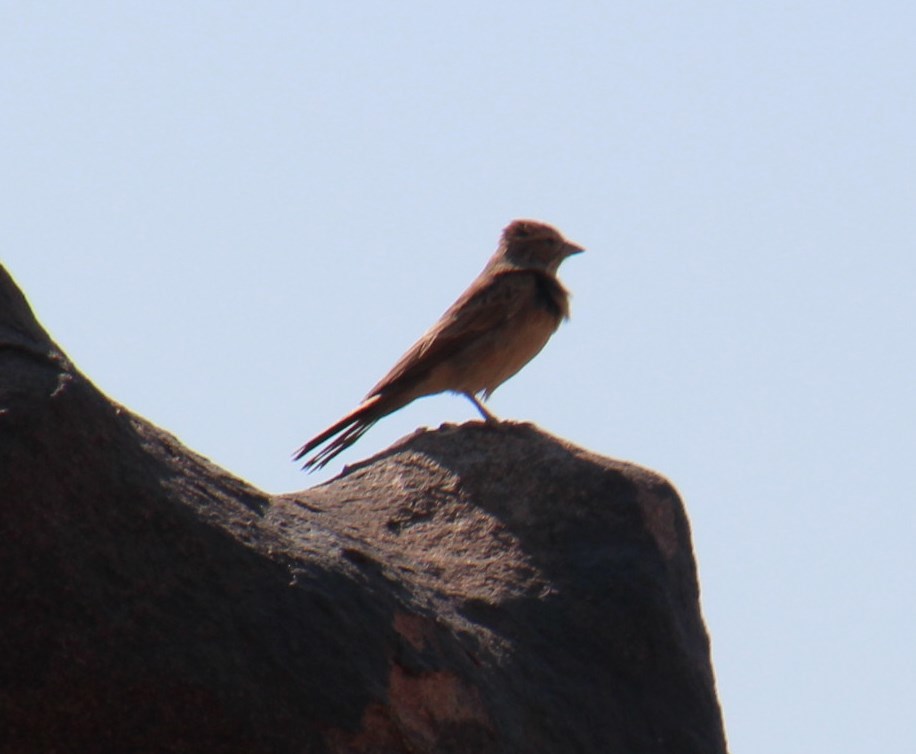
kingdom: Animalia
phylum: Chordata
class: Aves
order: Passeriformes
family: Emberizidae
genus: Emberiza
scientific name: Emberiza impetuani
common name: Lark-like bunting
